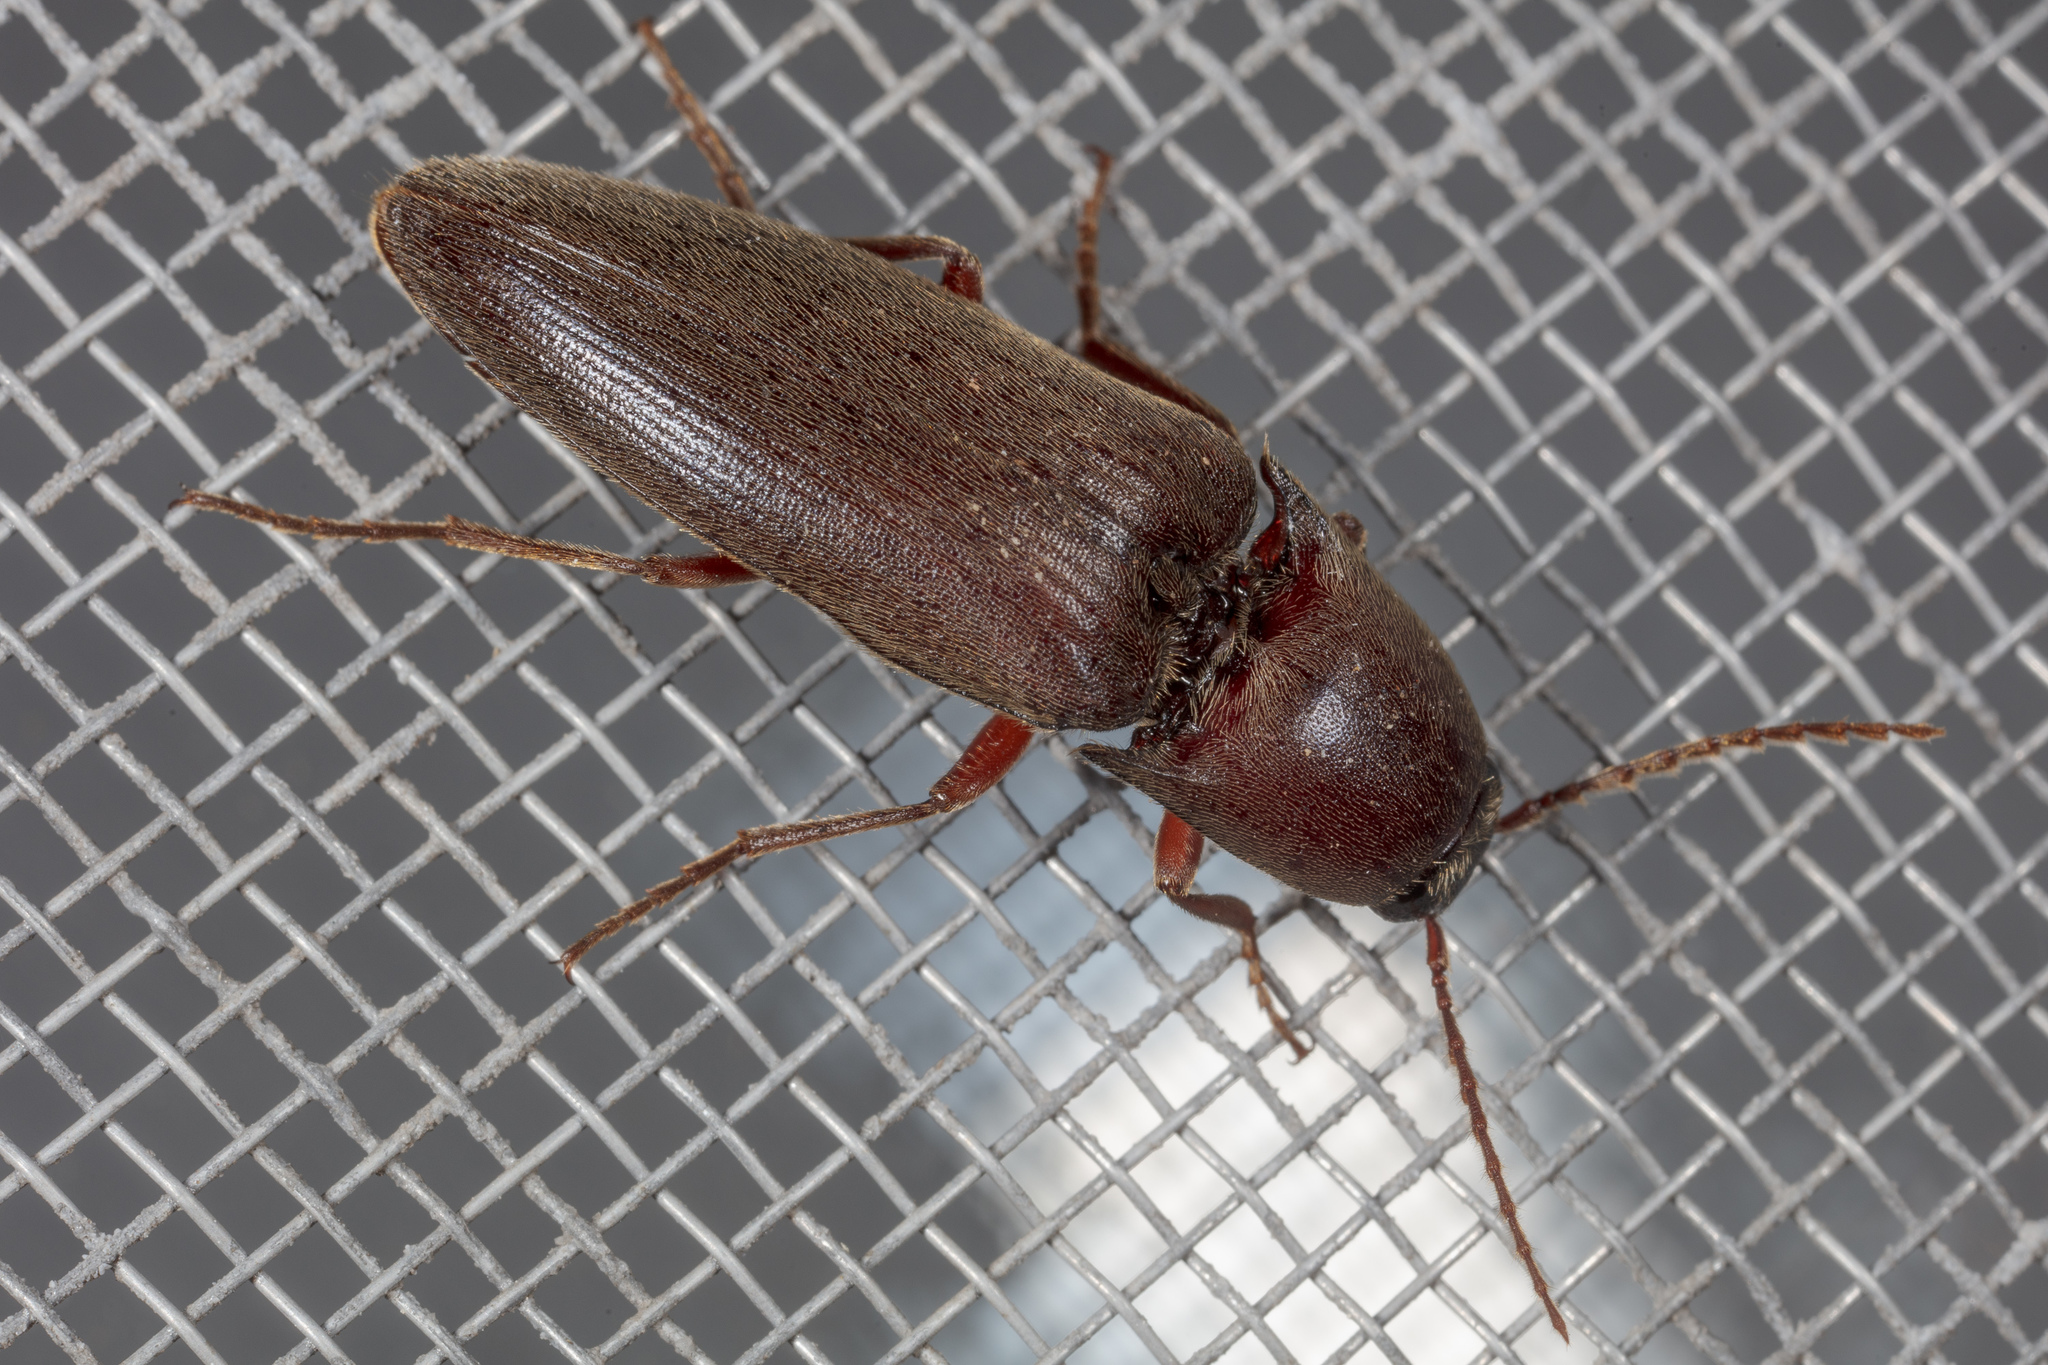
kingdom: Animalia
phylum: Arthropoda
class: Insecta
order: Coleoptera
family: Elateridae
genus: Diplostethus
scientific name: Diplostethus
